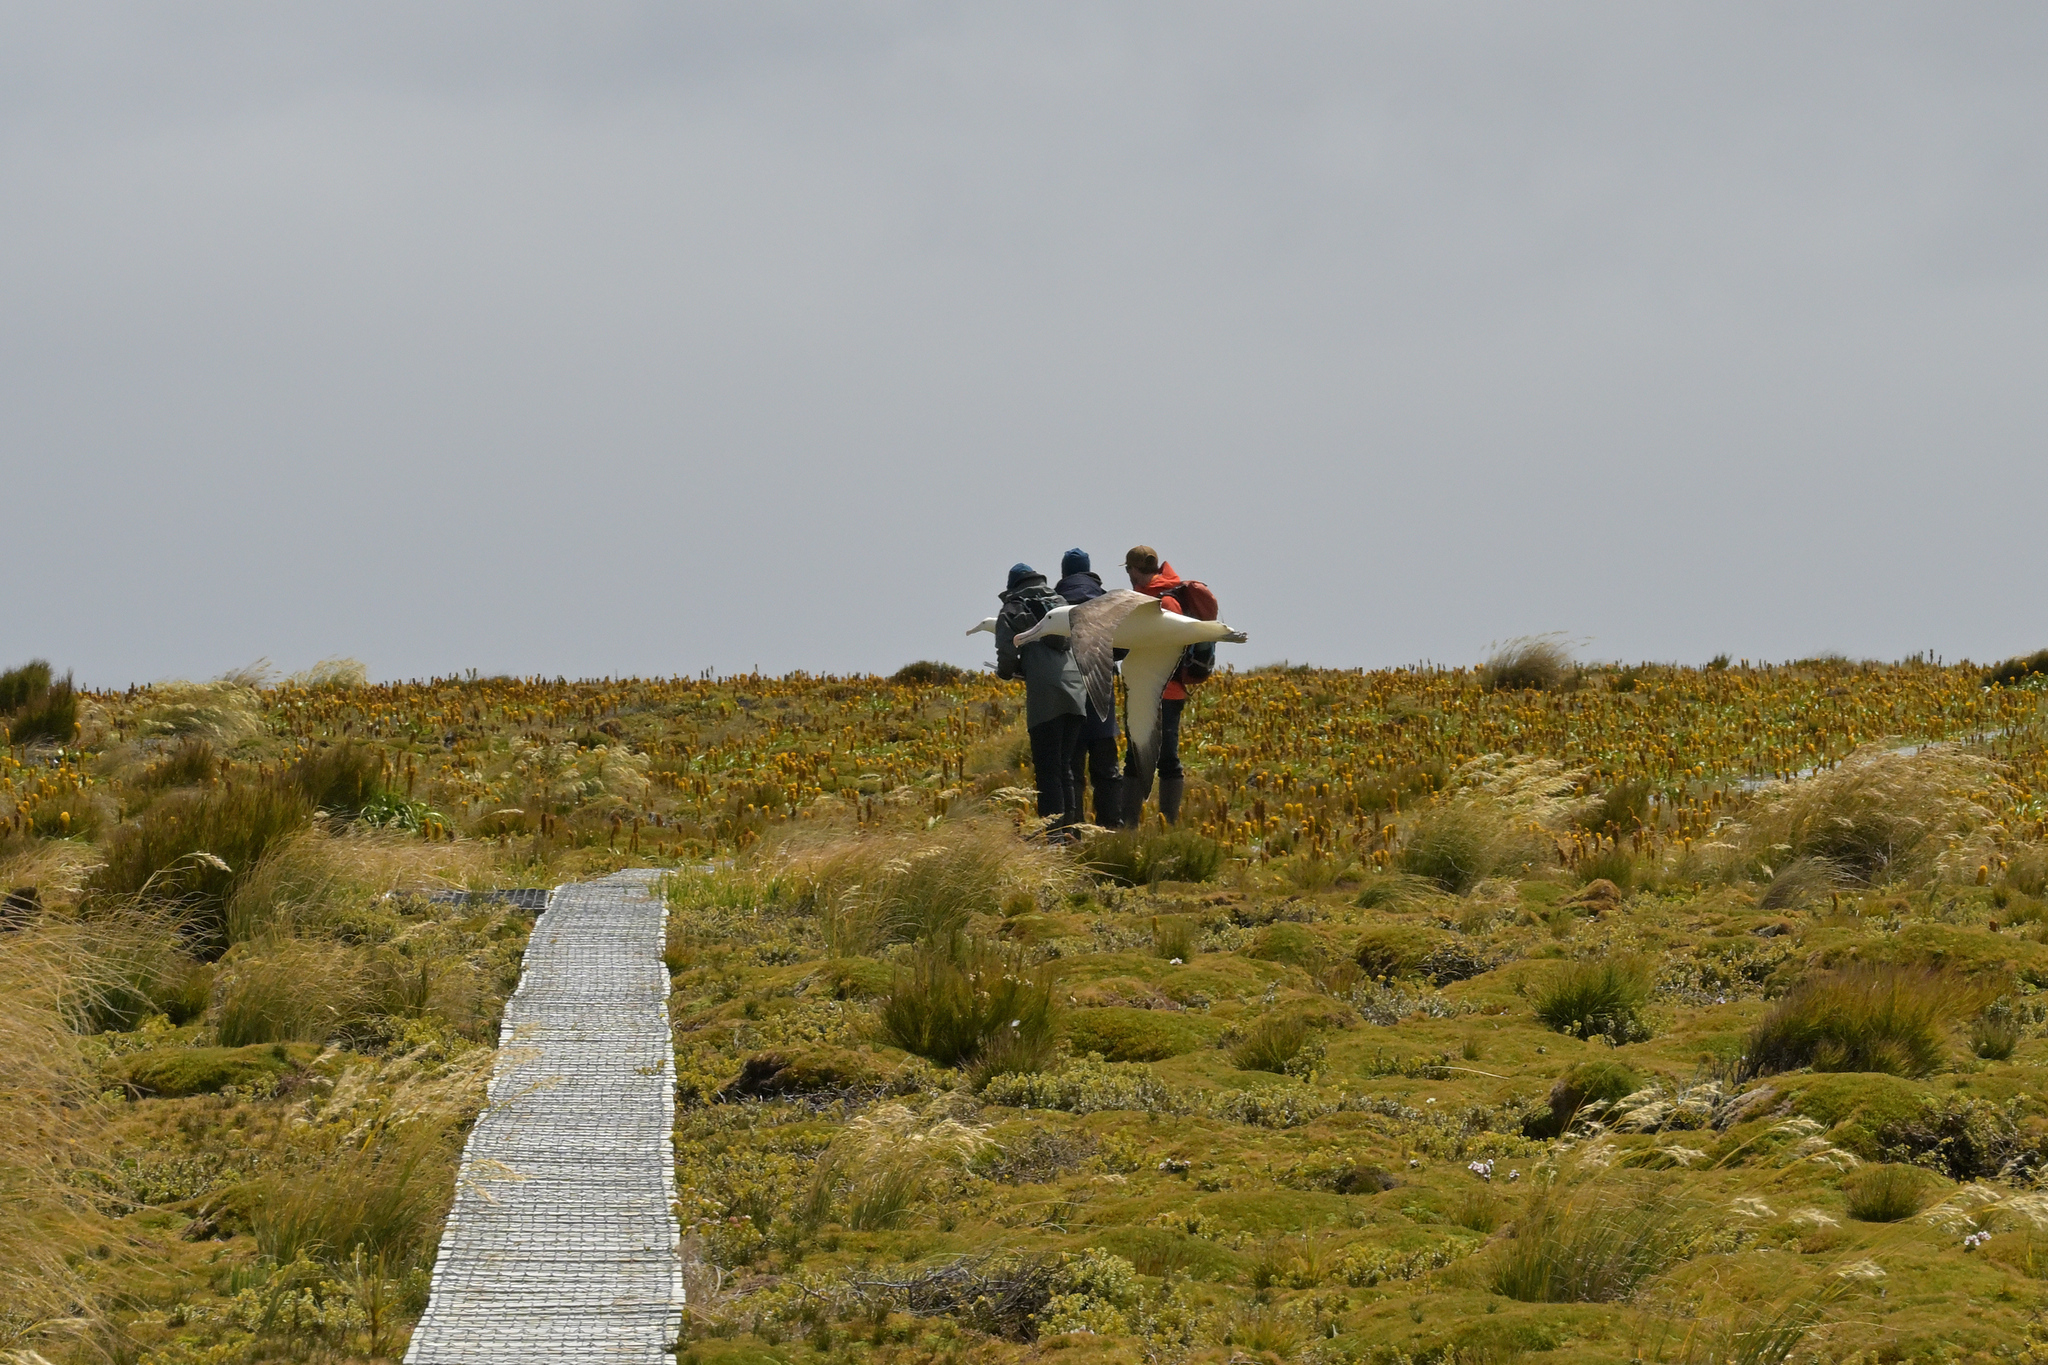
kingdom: Animalia
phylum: Chordata
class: Aves
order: Procellariiformes
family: Diomedeidae
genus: Diomedea
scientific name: Diomedea epomophora
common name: Southern royal albatross
